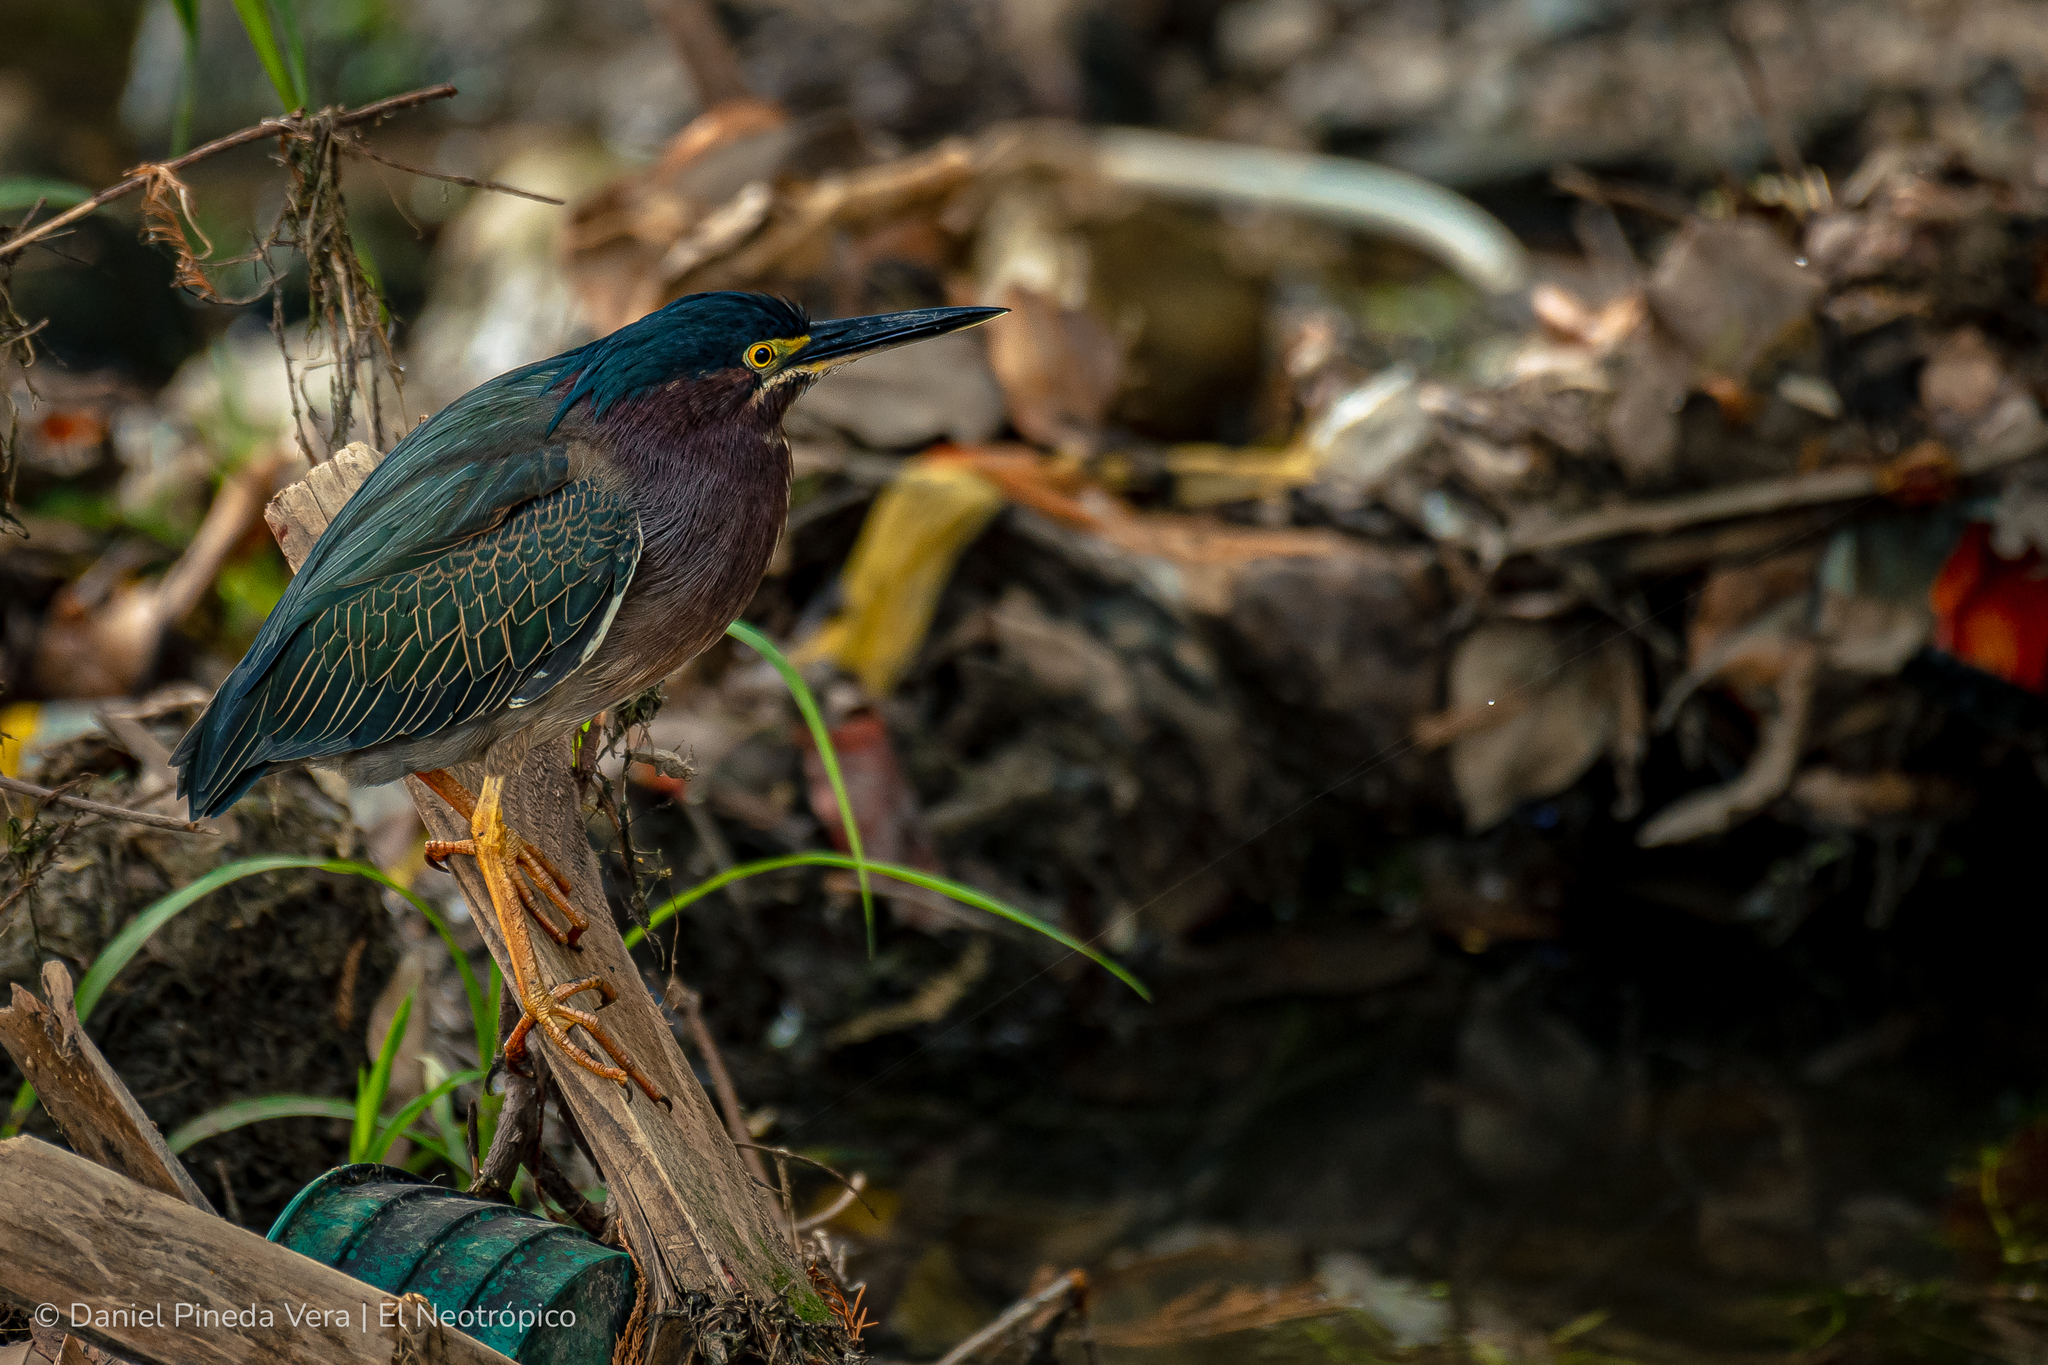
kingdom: Animalia
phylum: Chordata
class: Aves
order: Pelecaniformes
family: Ardeidae
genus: Butorides
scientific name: Butorides virescens
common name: Green heron
